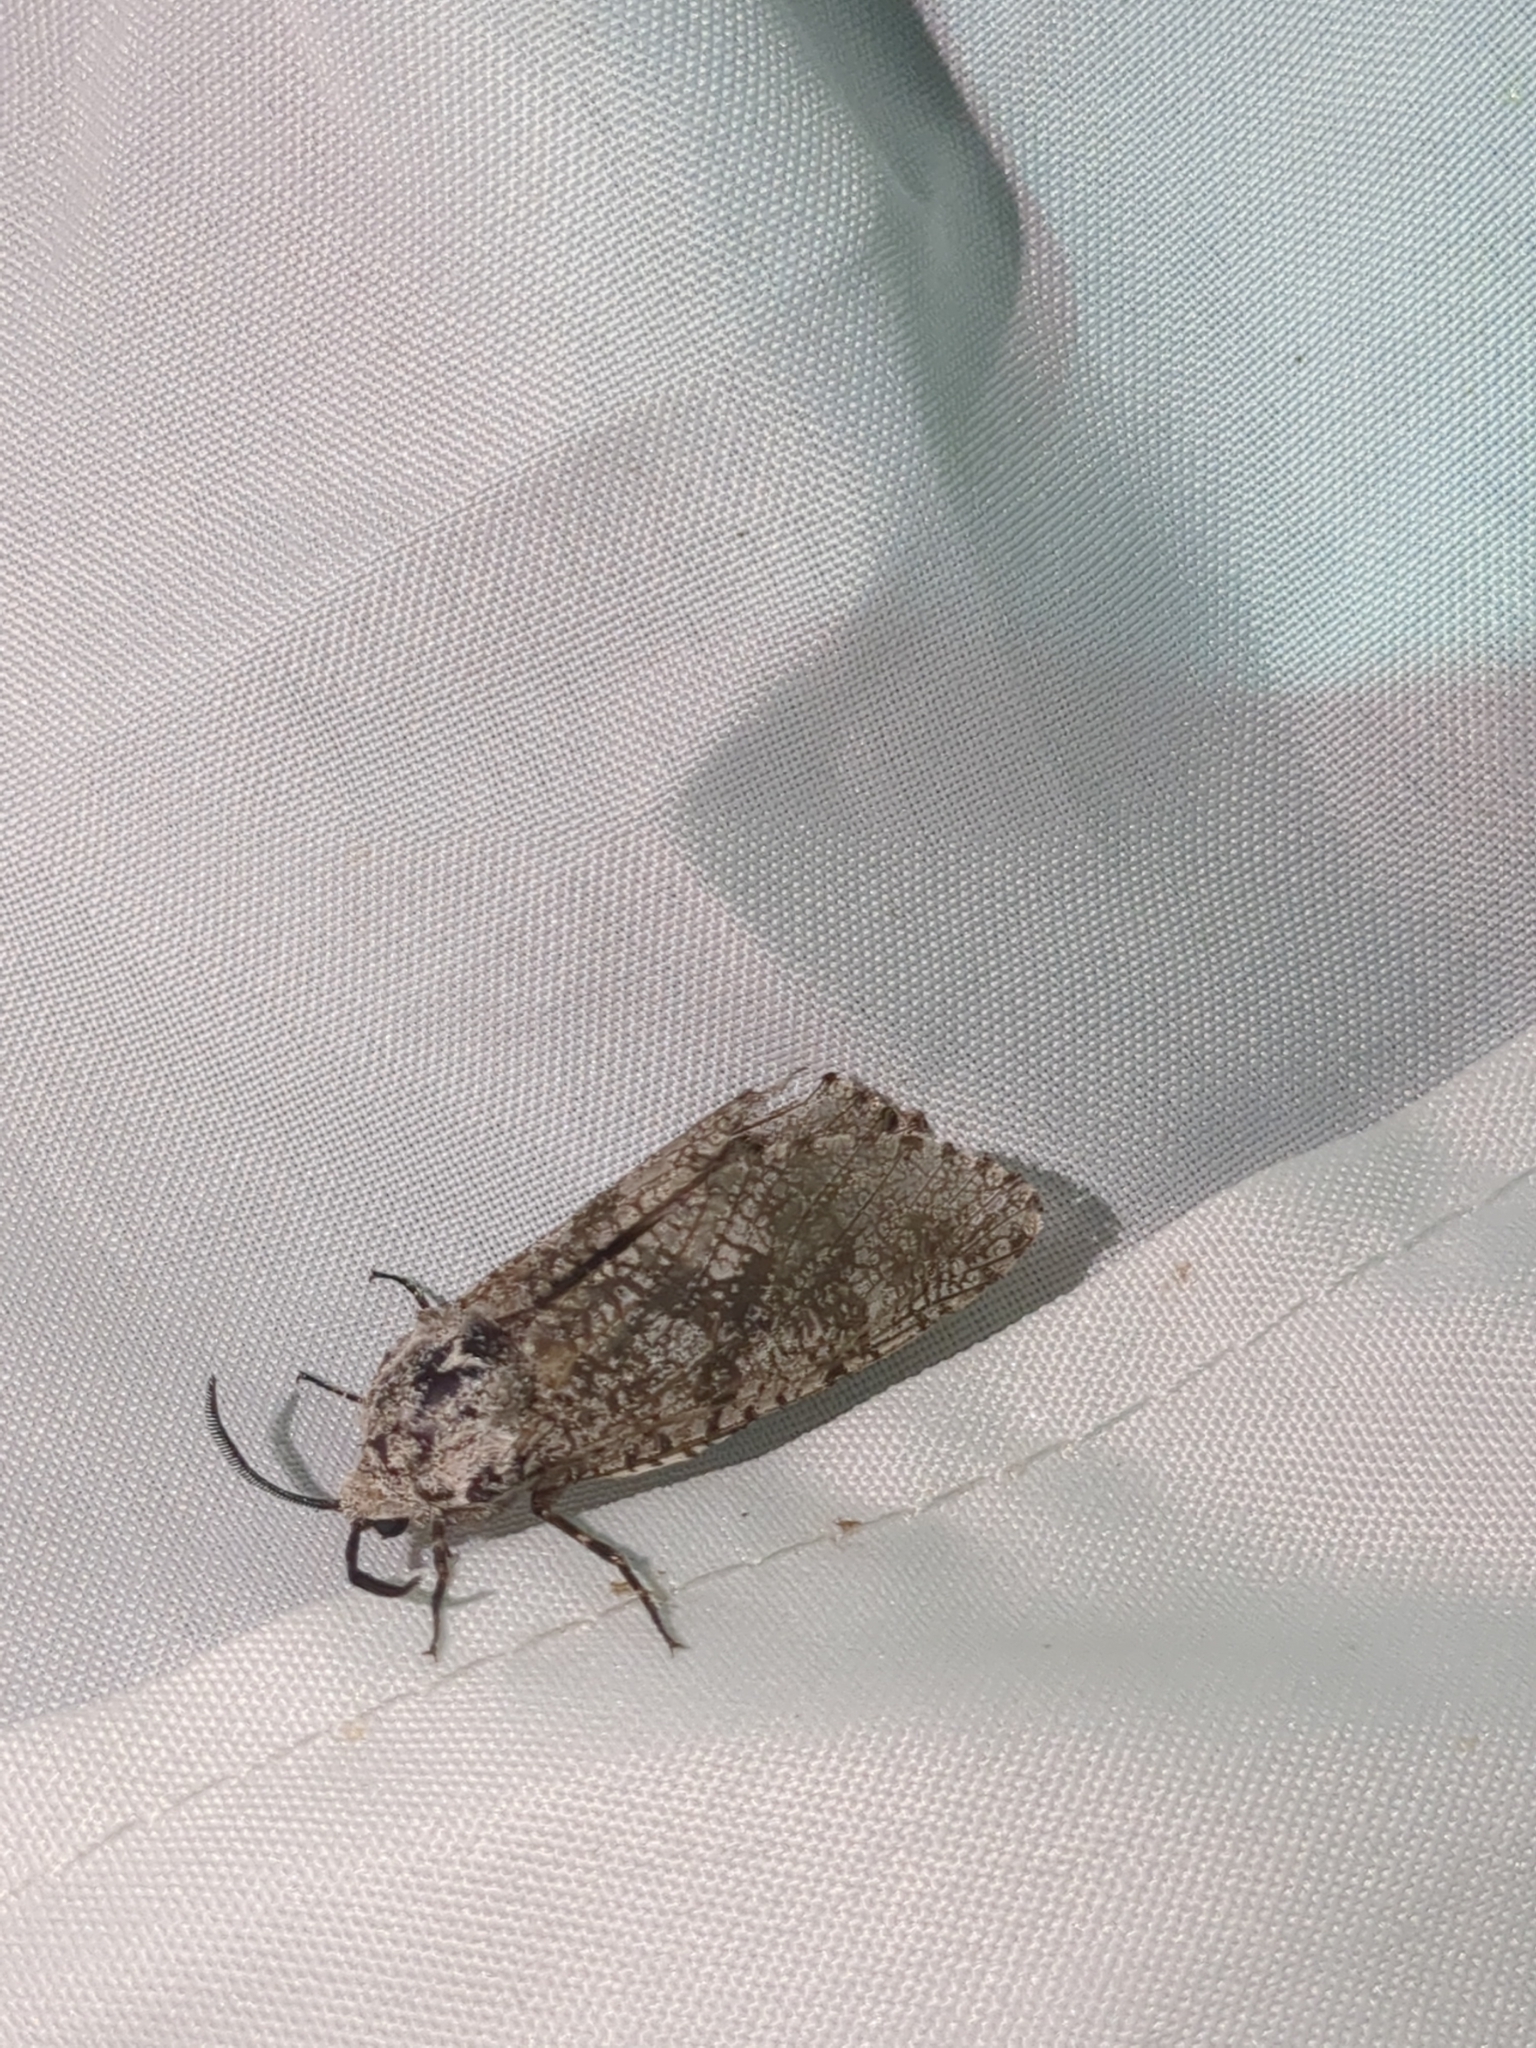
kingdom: Animalia
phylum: Arthropoda
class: Insecta
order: Lepidoptera
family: Cossidae
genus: Prionoxystus
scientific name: Prionoxystus robiniae
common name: Carpenterworm
